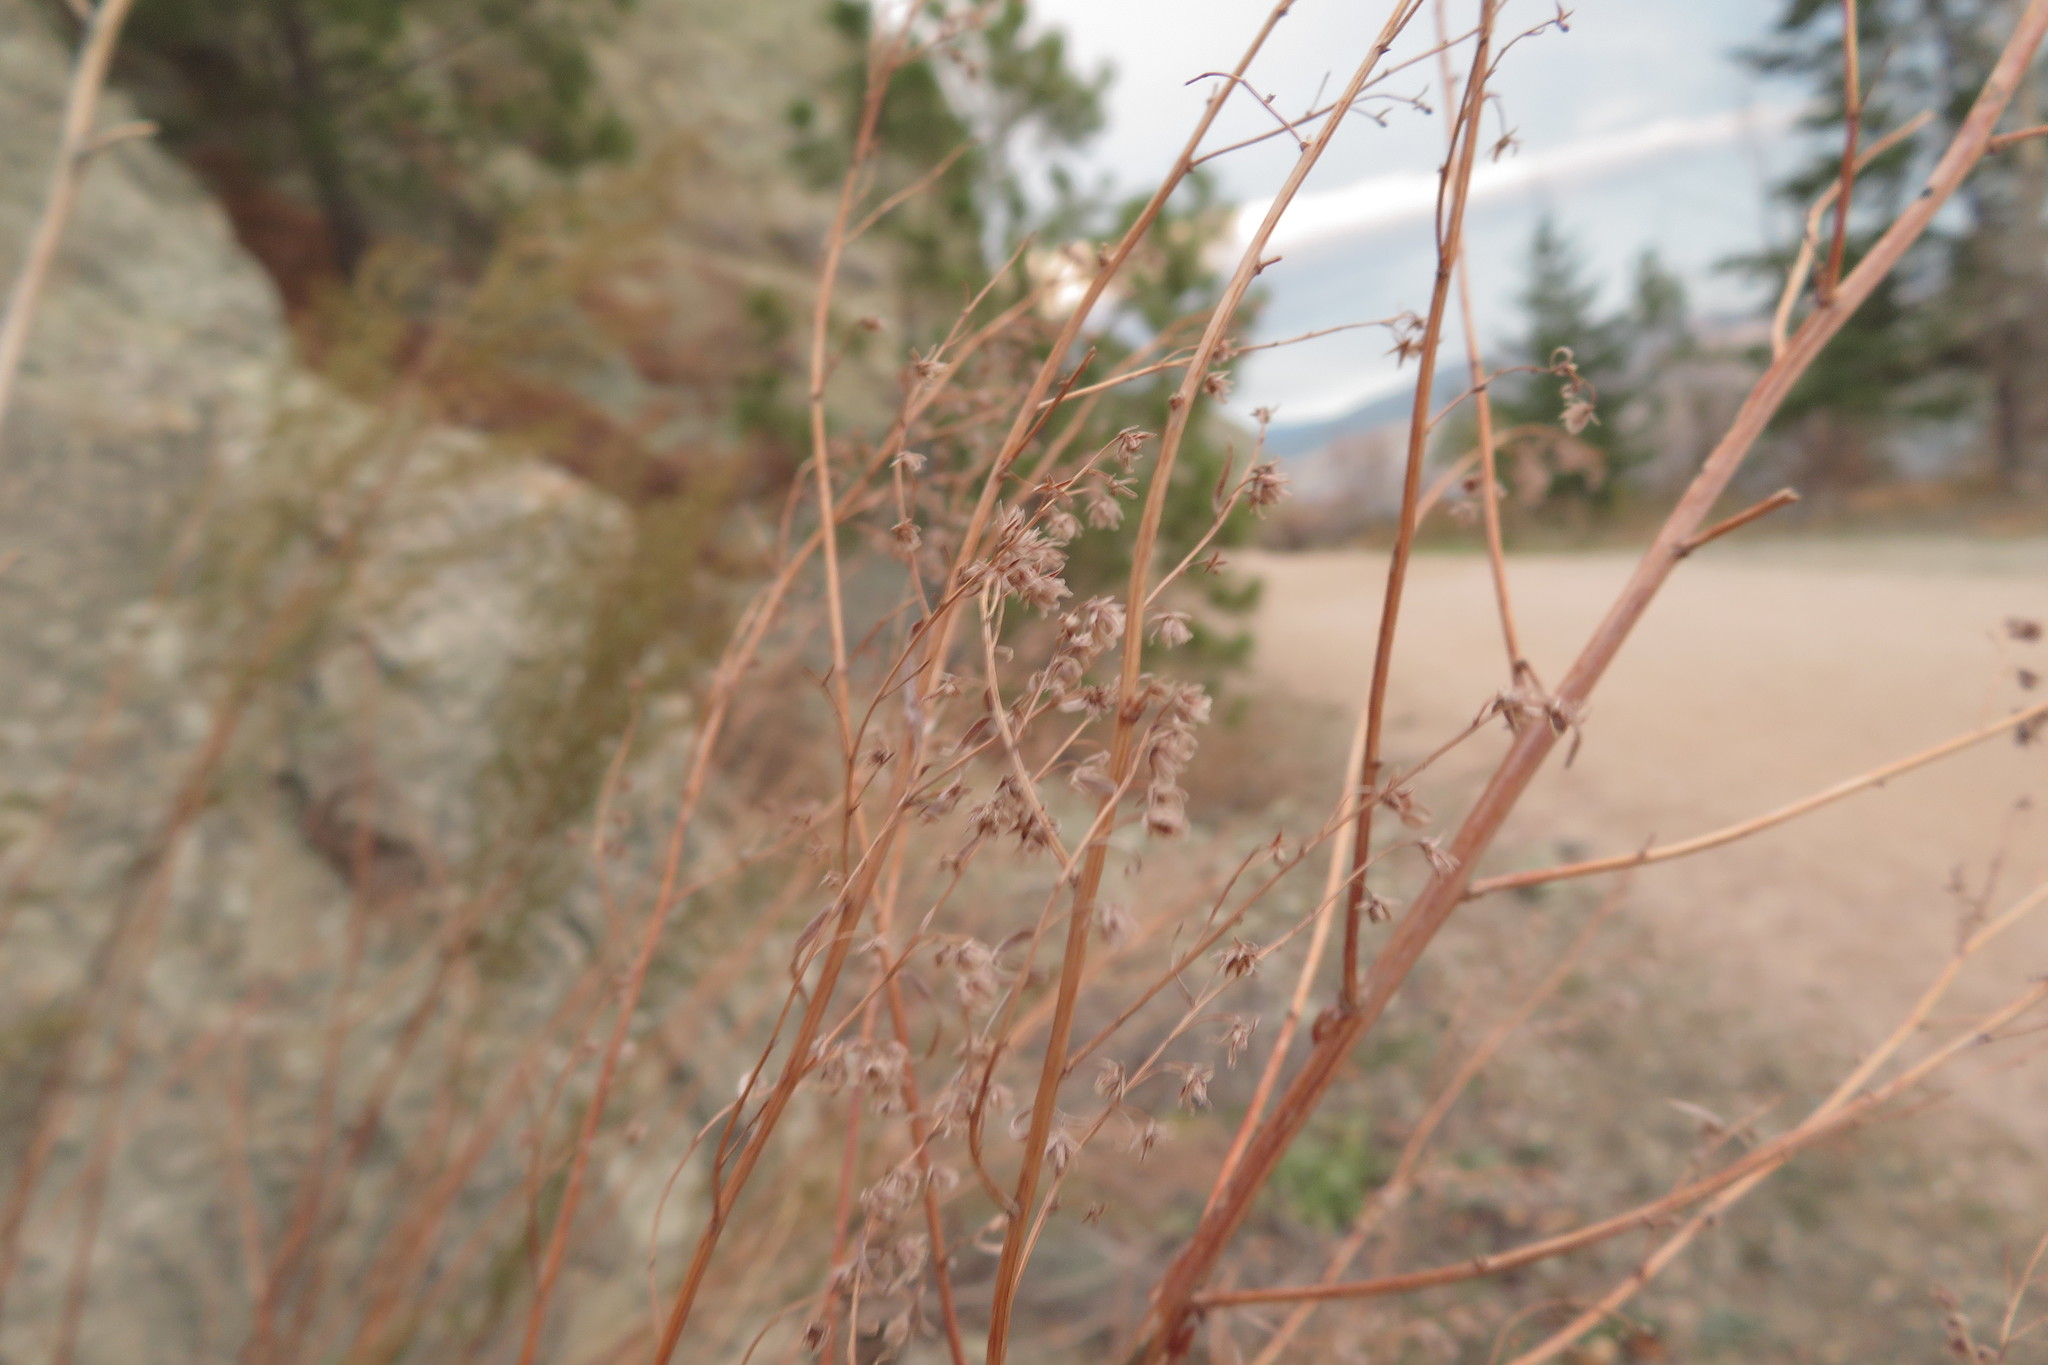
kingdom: Plantae
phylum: Tracheophyta
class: Magnoliopsida
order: Asterales
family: Asteraceae
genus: Artemisia
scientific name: Artemisia dracunculus
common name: Tarragon
